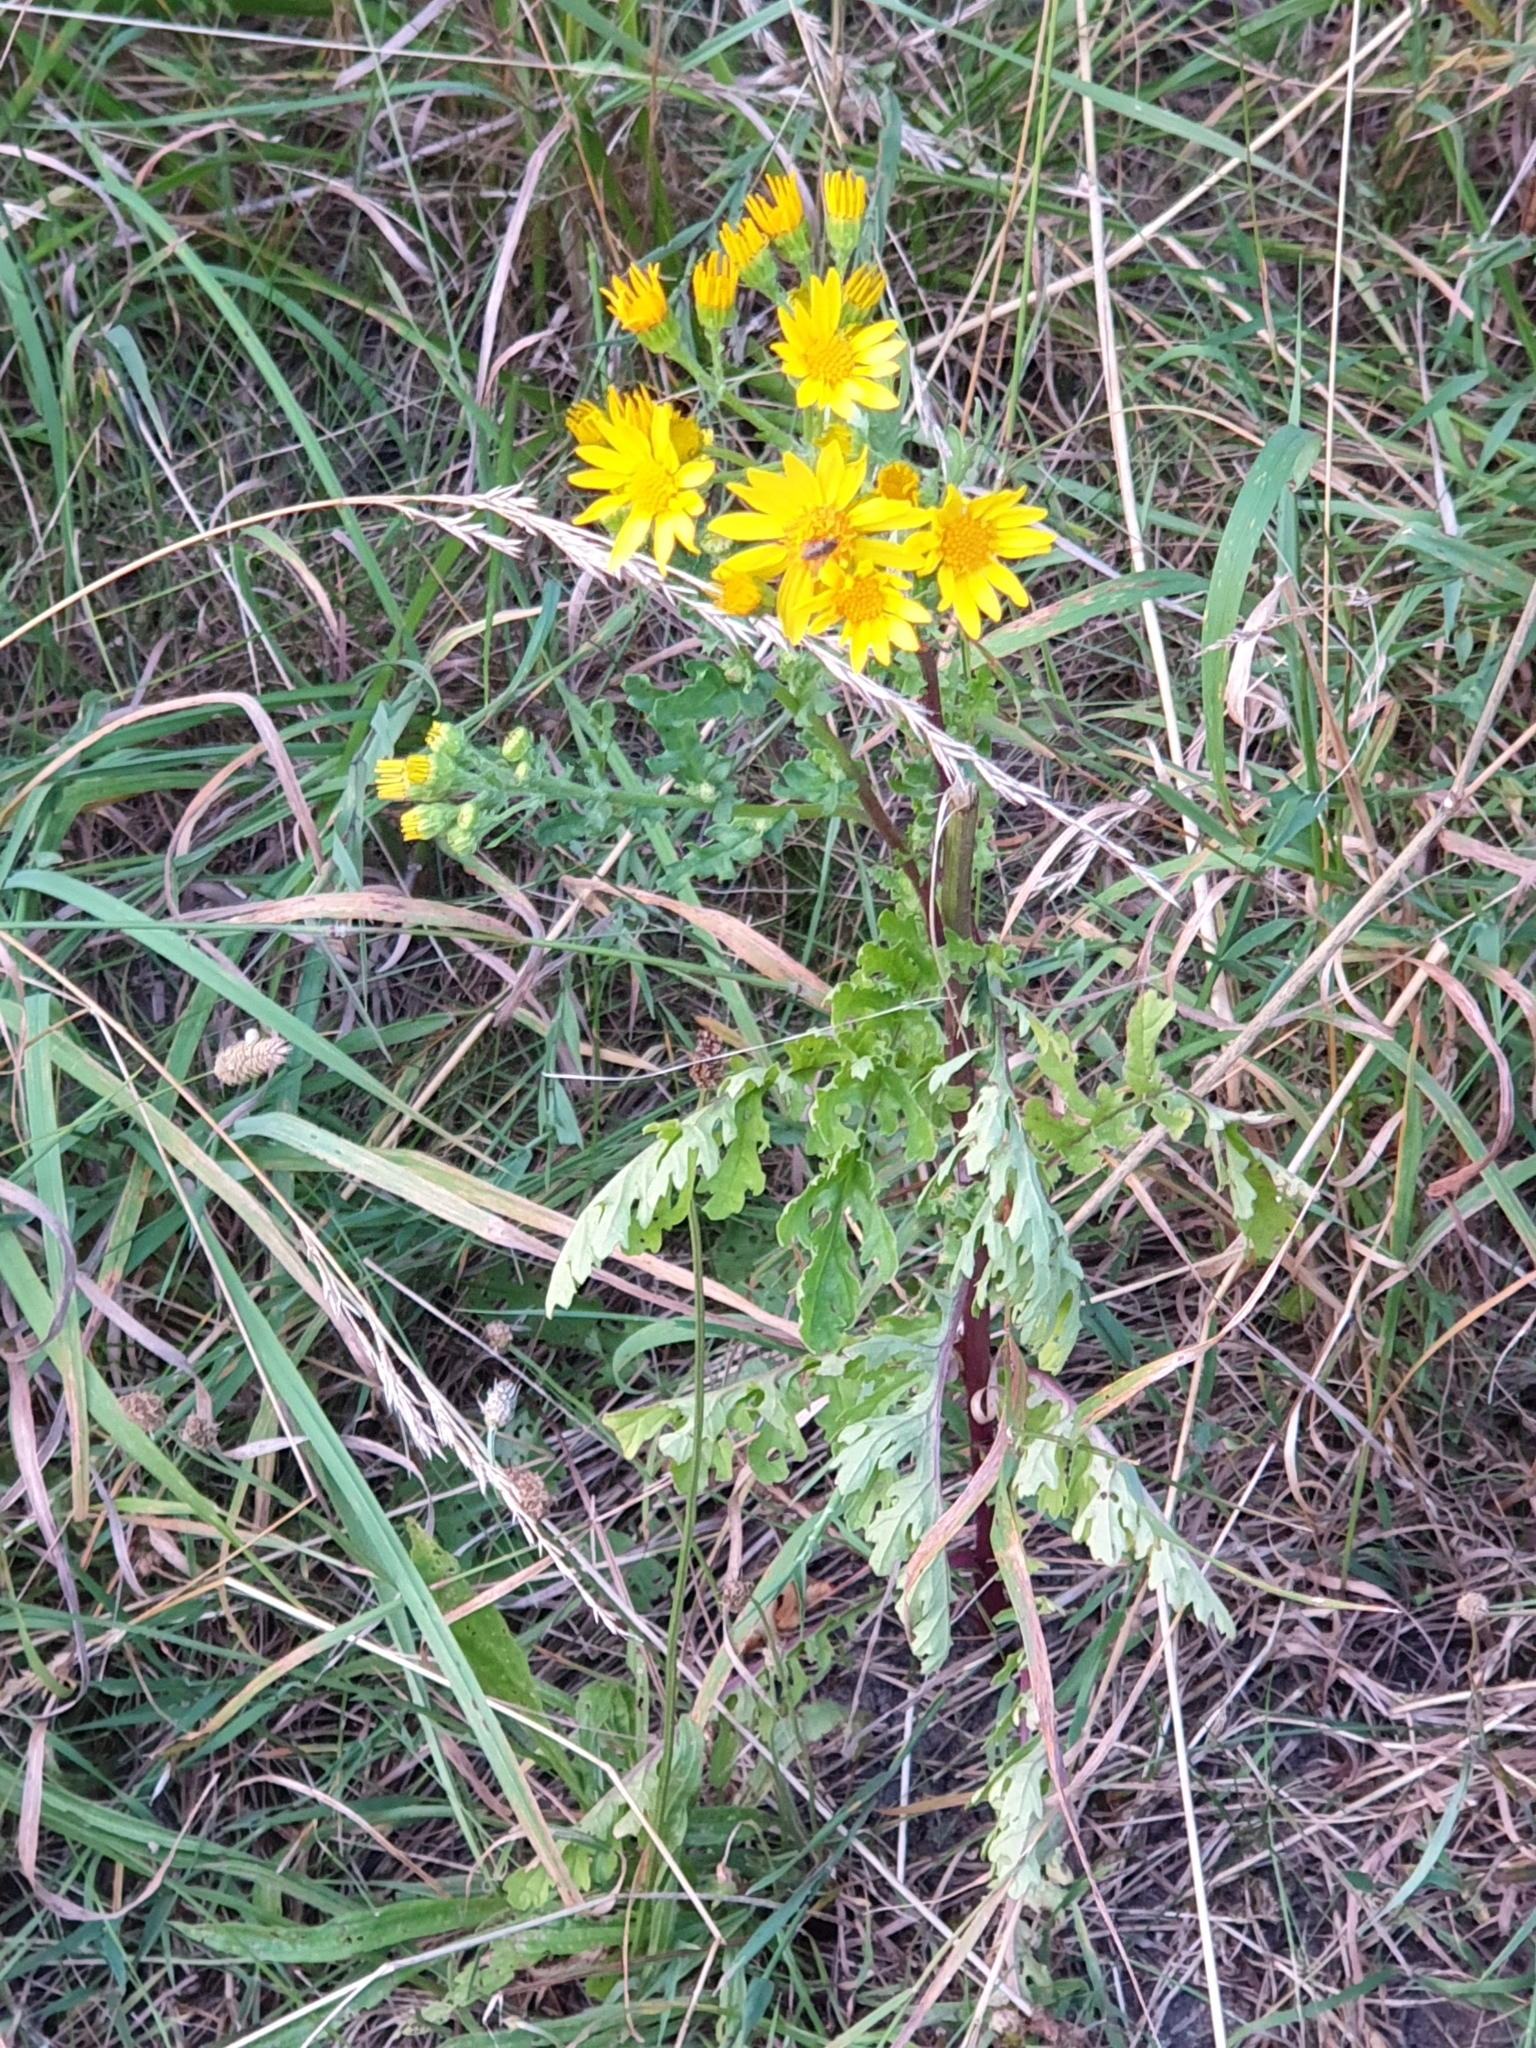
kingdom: Plantae
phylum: Tracheophyta
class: Magnoliopsida
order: Asterales
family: Asteraceae
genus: Jacobaea
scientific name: Jacobaea vulgaris
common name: Stinking willie
